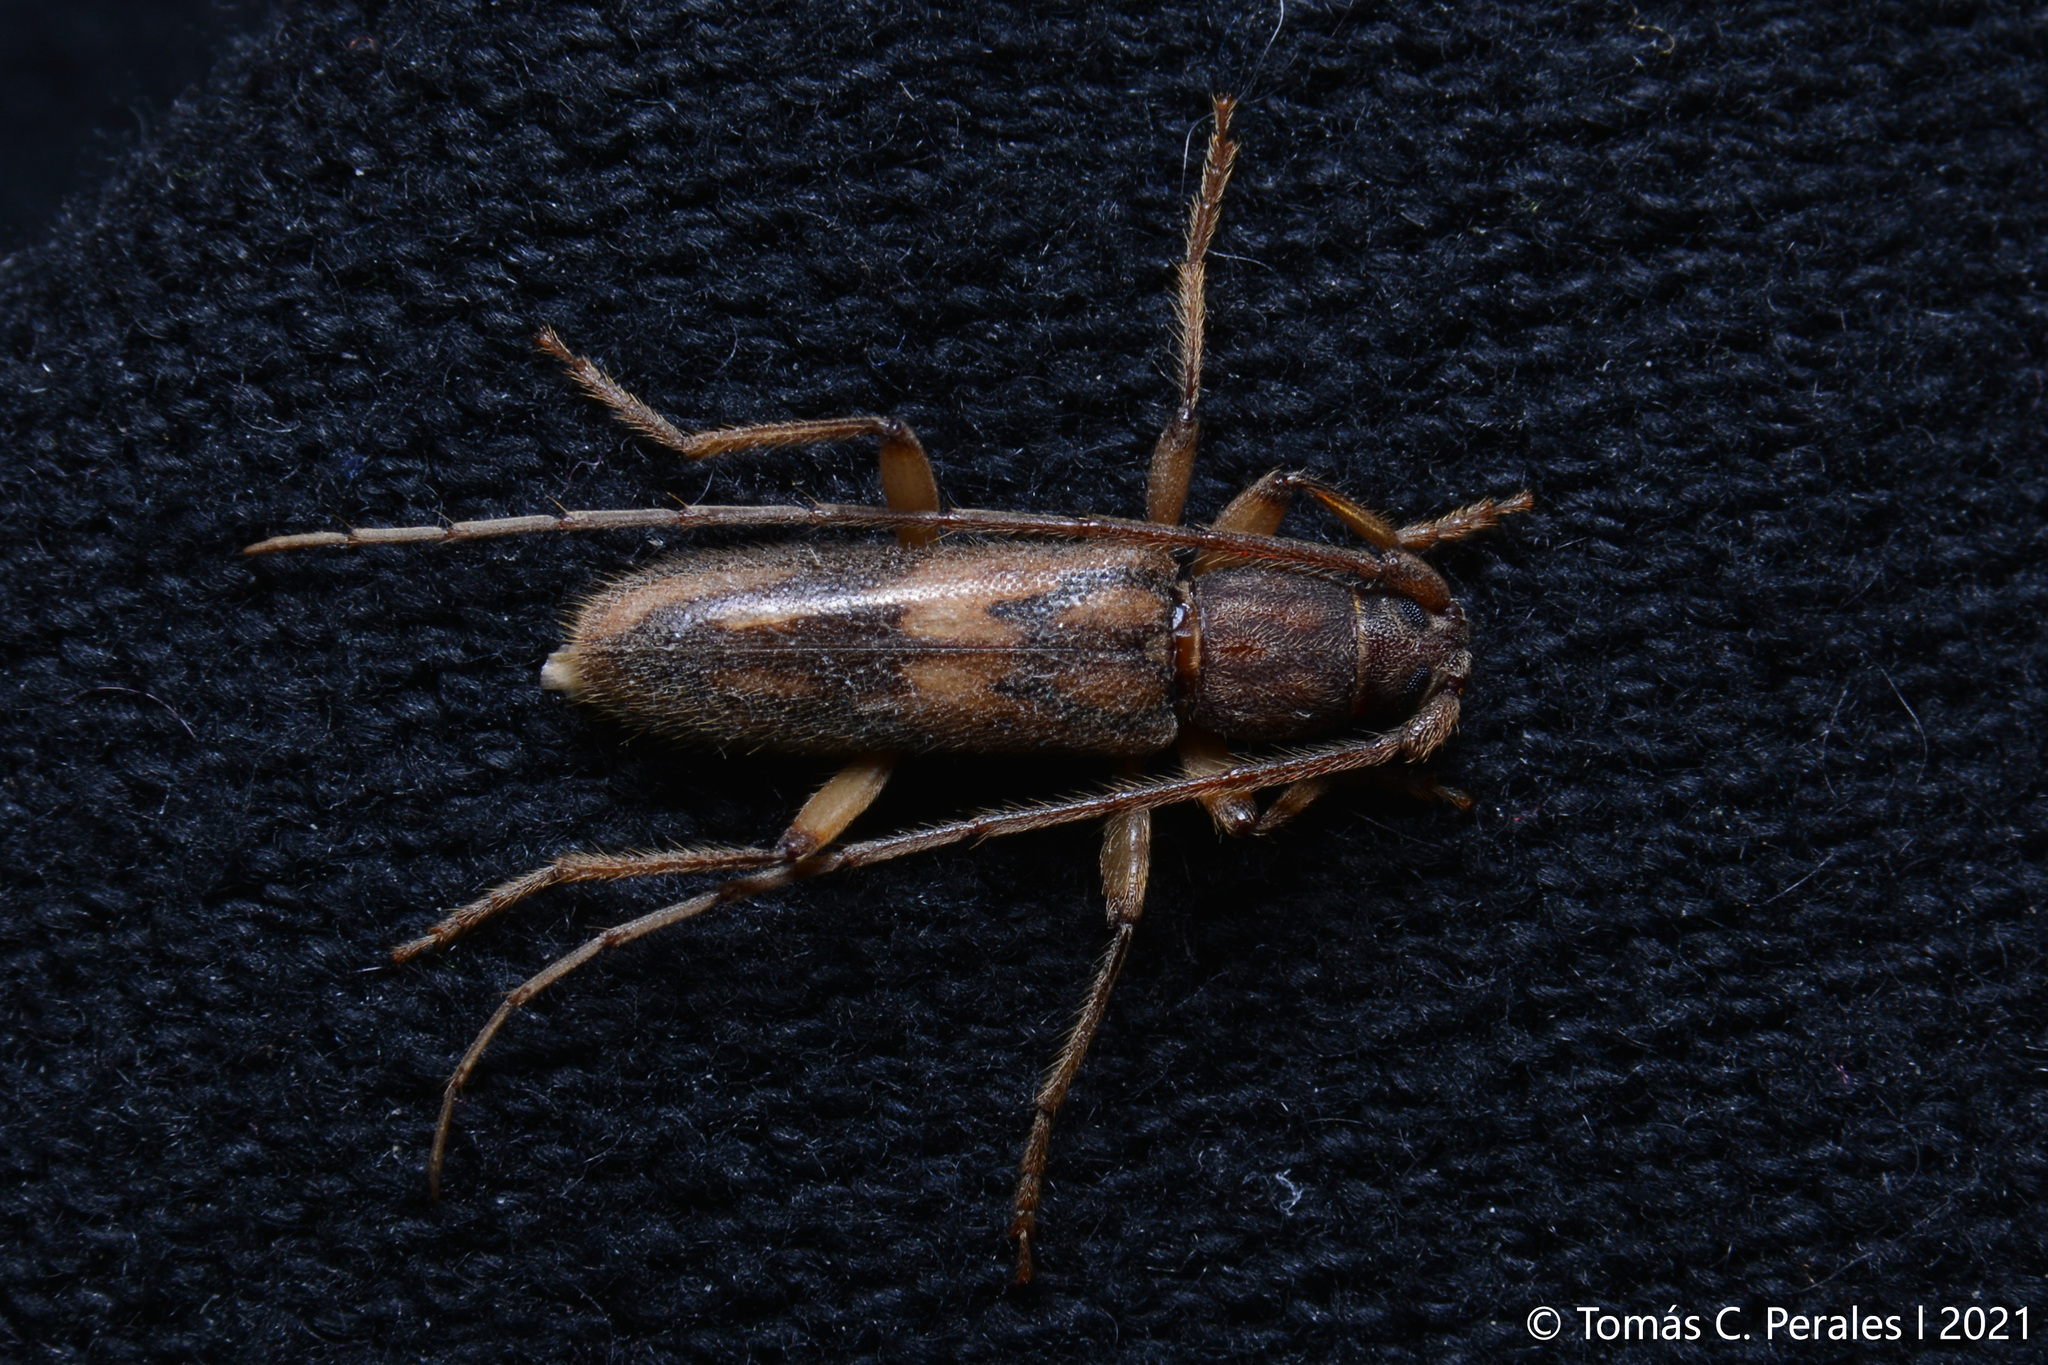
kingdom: Animalia
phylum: Arthropoda
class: Insecta
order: Coleoptera
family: Cerambycidae
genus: Achryson
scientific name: Achryson lutarium
